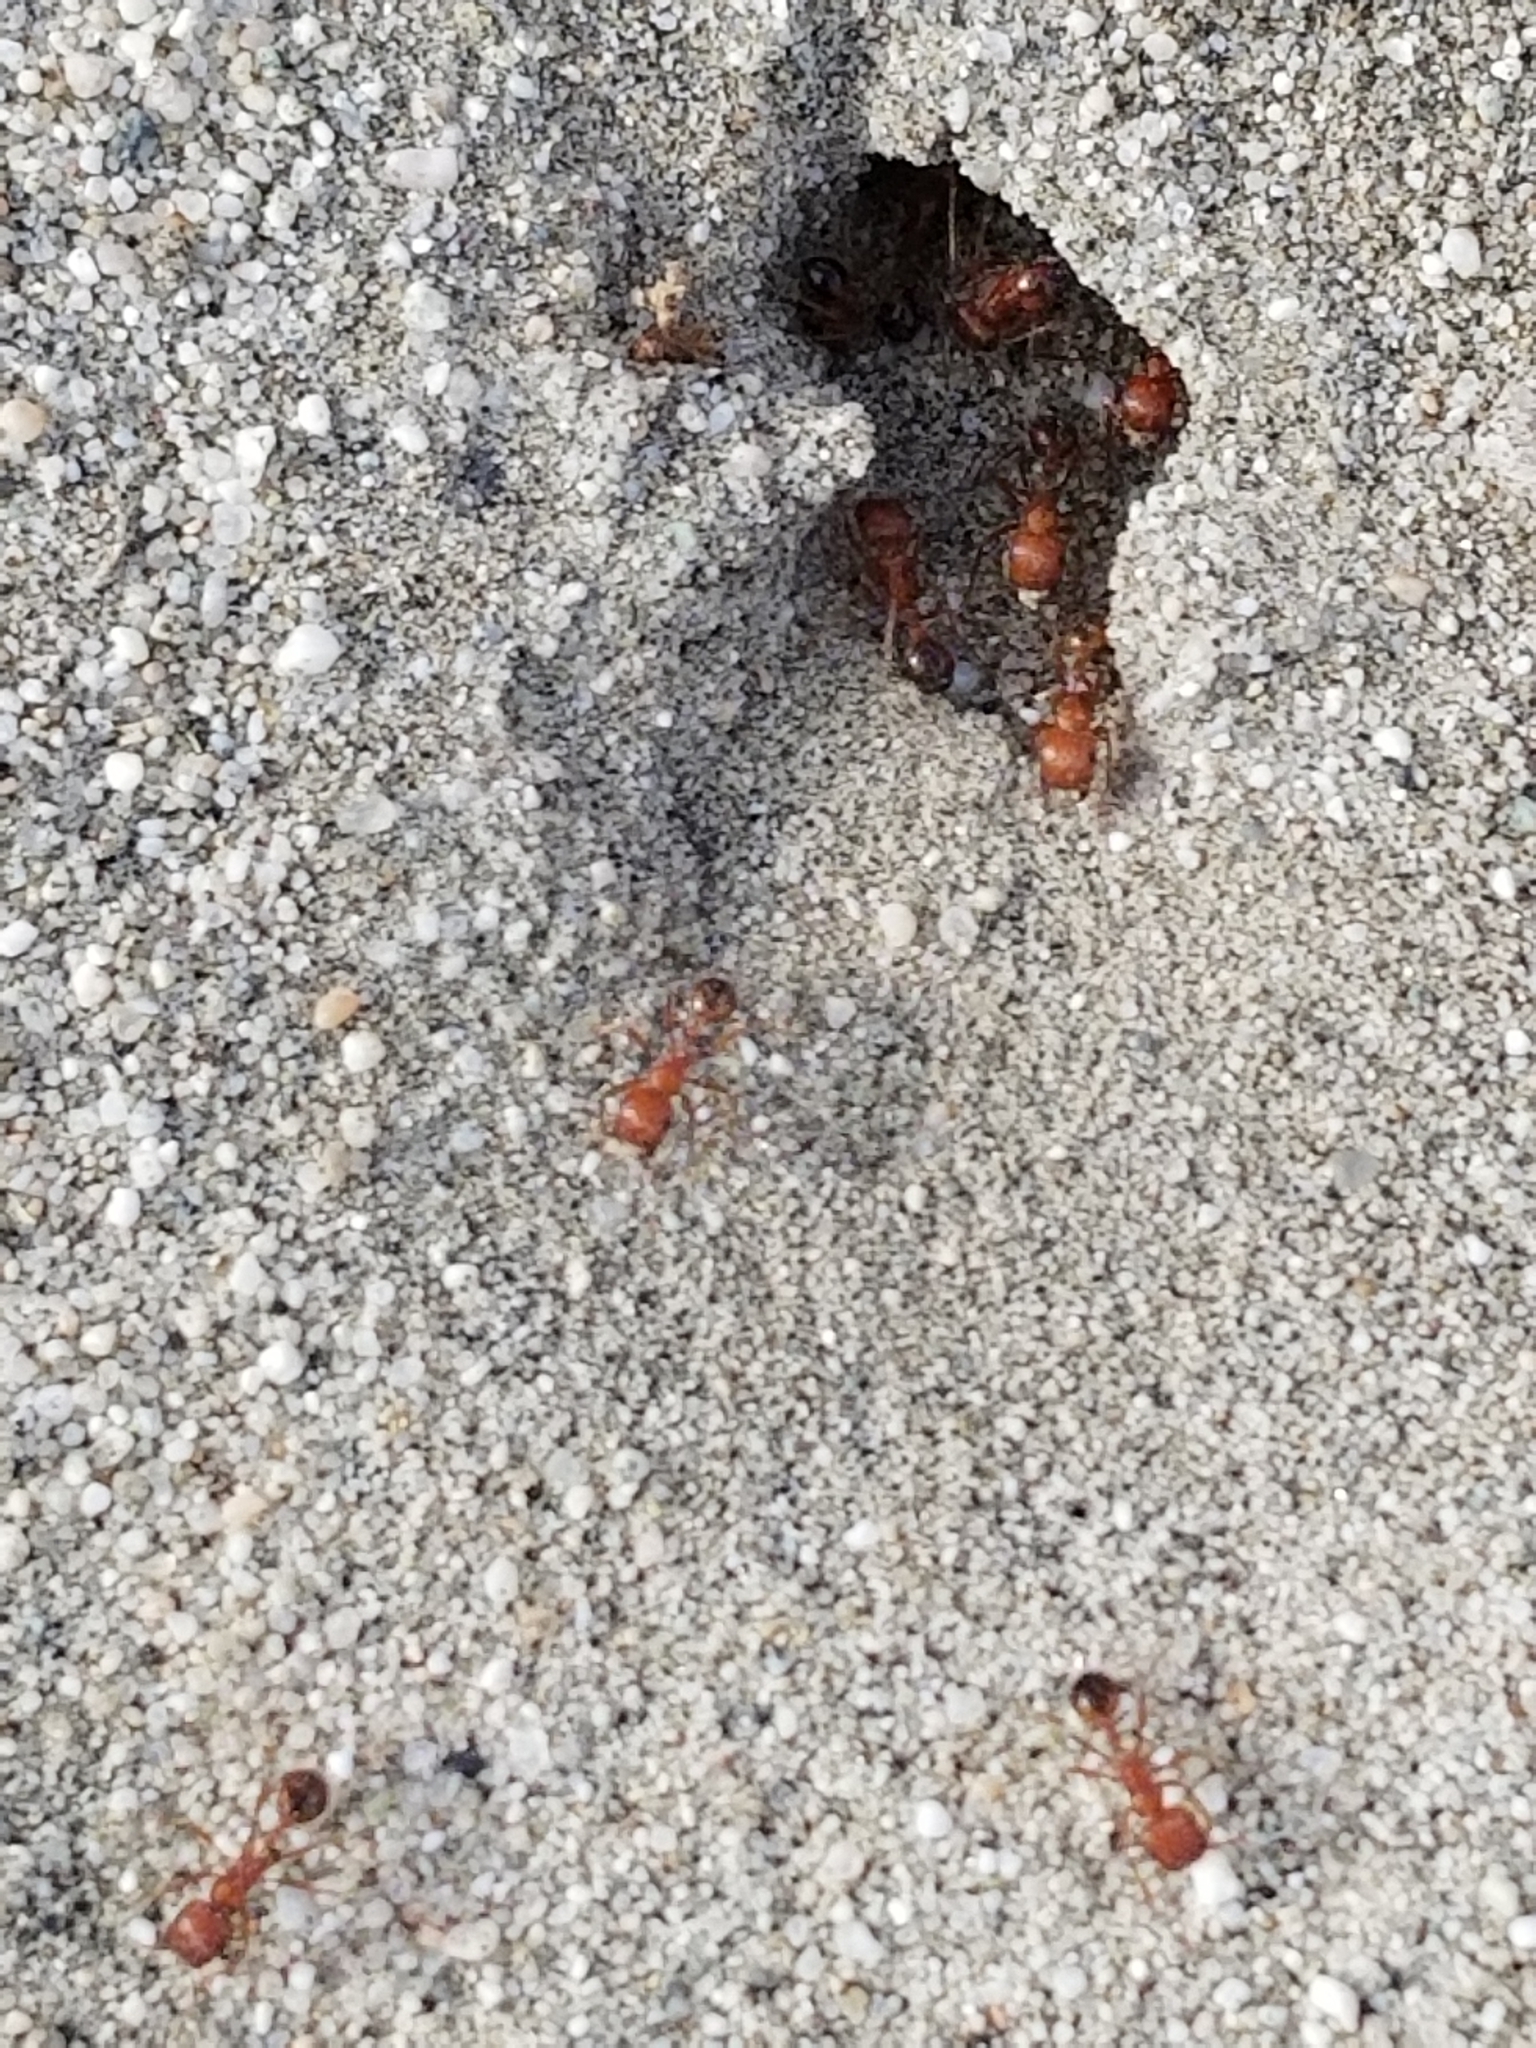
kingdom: Animalia
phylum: Arthropoda
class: Insecta
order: Hymenoptera
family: Formicidae
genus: Pogonomyrmex
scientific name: Pogonomyrmex californicus
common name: California harvester ant
